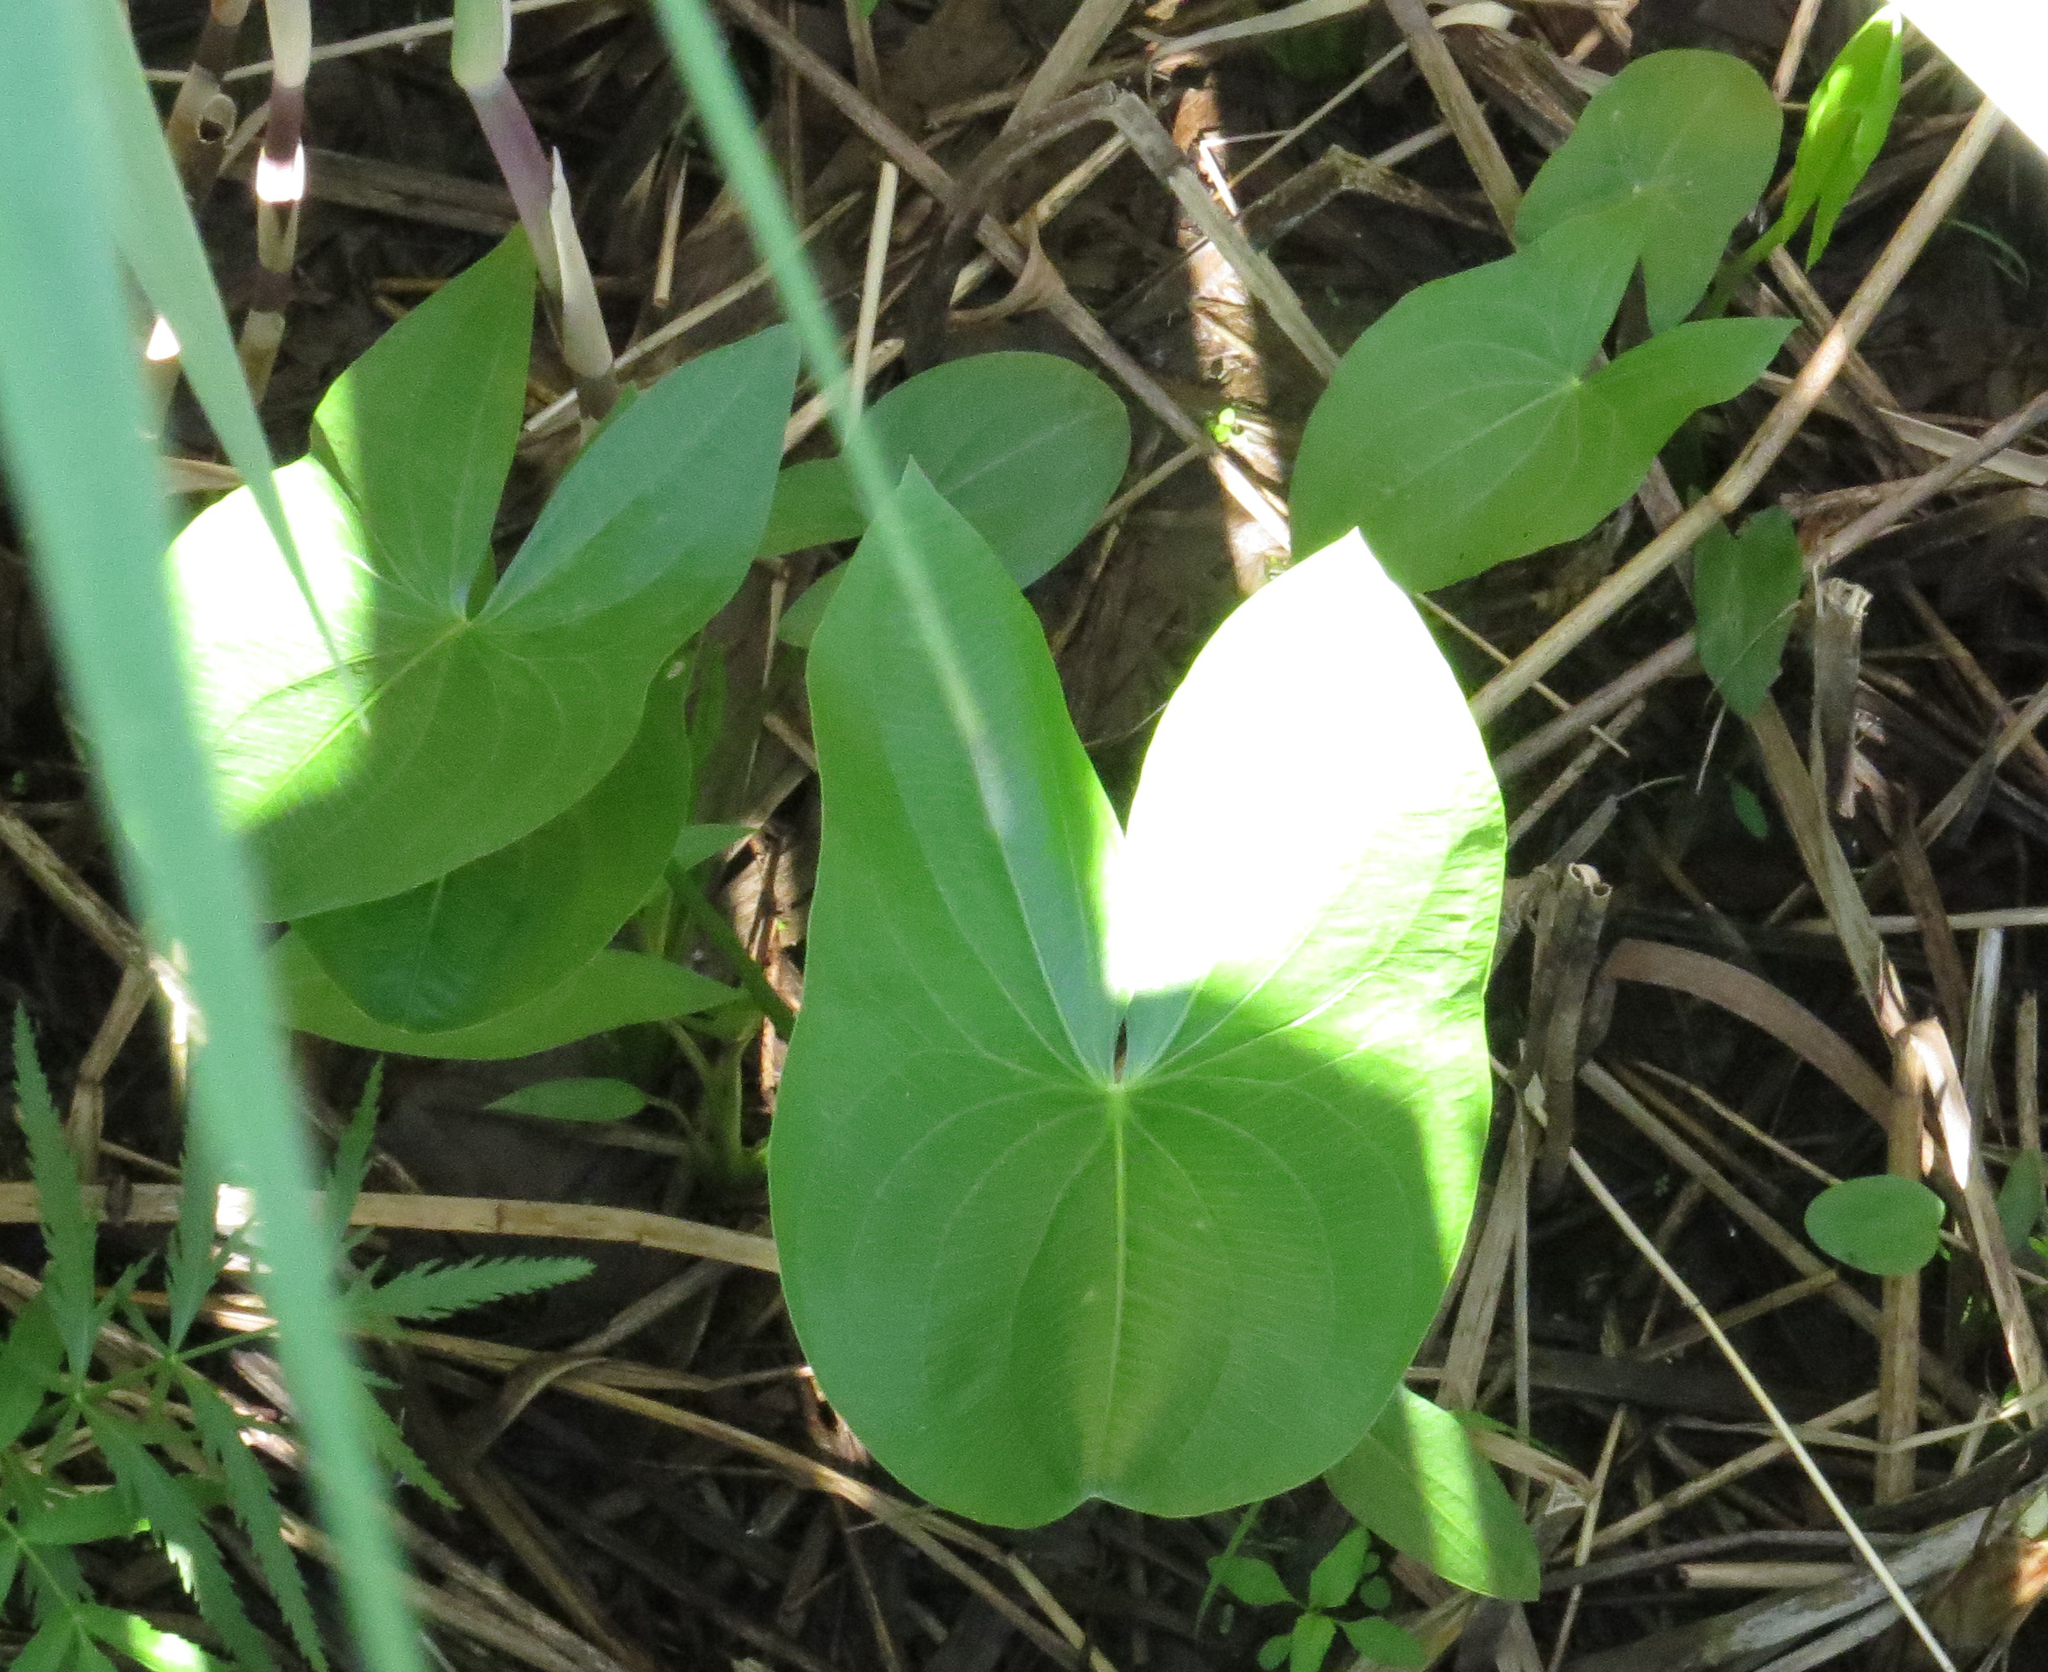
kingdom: Plantae
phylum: Tracheophyta
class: Liliopsida
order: Alismatales
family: Alismataceae
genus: Sagittaria
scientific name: Sagittaria latifolia
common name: Duck-potato
